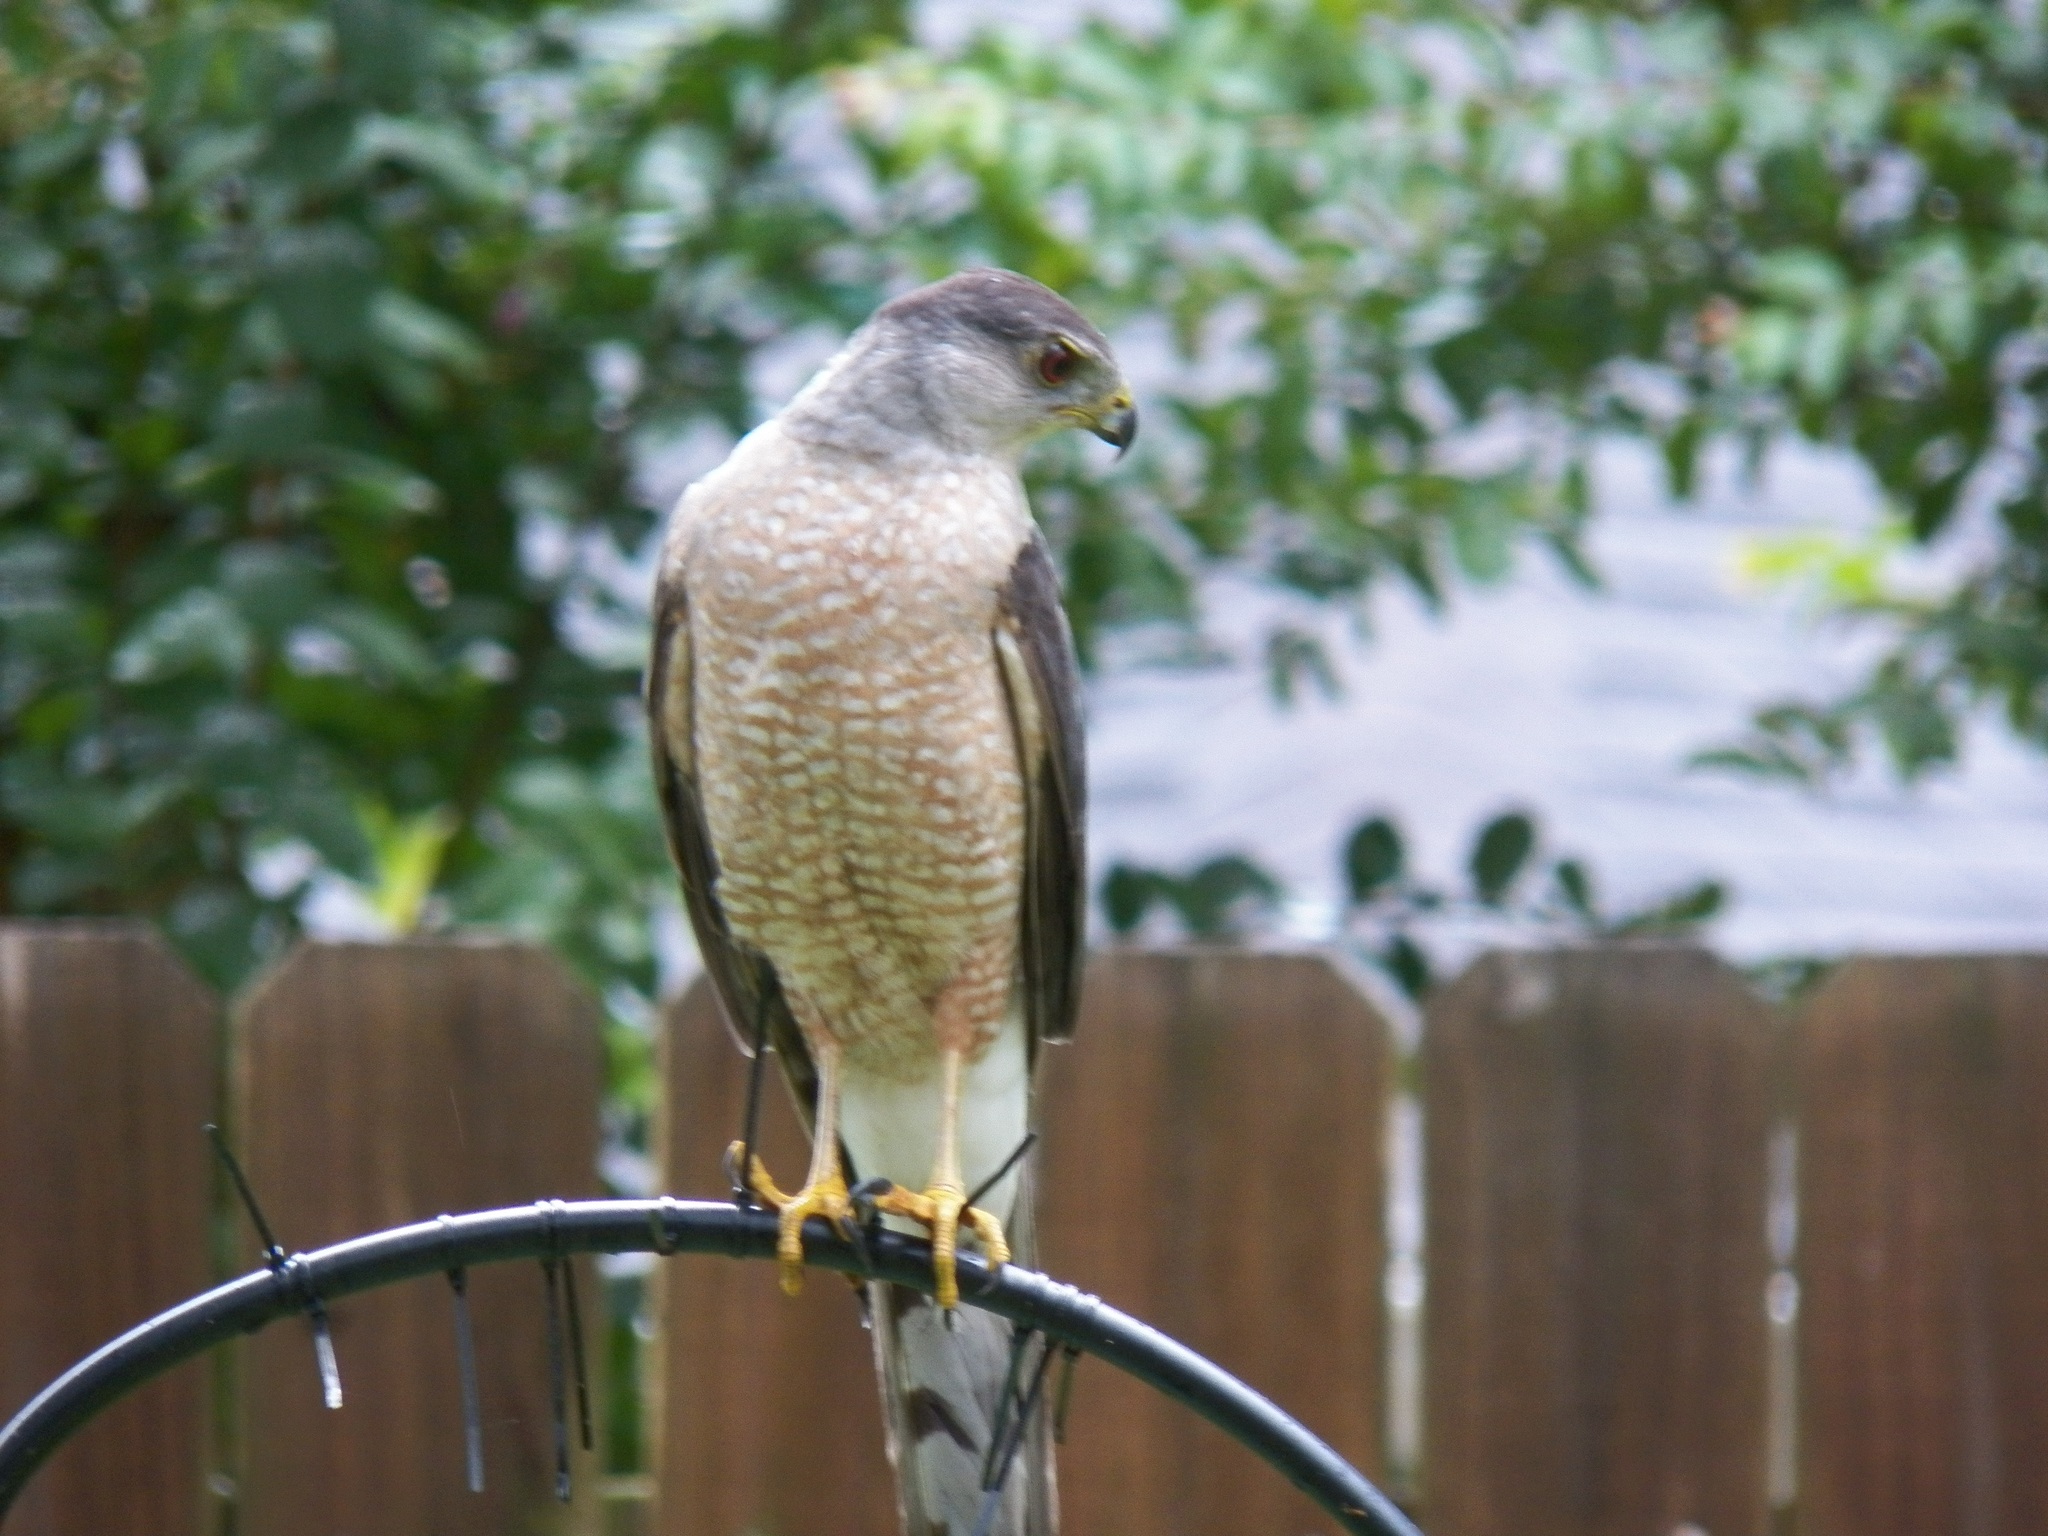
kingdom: Animalia
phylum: Chordata
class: Aves
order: Accipitriformes
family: Accipitridae
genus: Accipiter
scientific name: Accipiter cooperii
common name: Cooper's hawk
